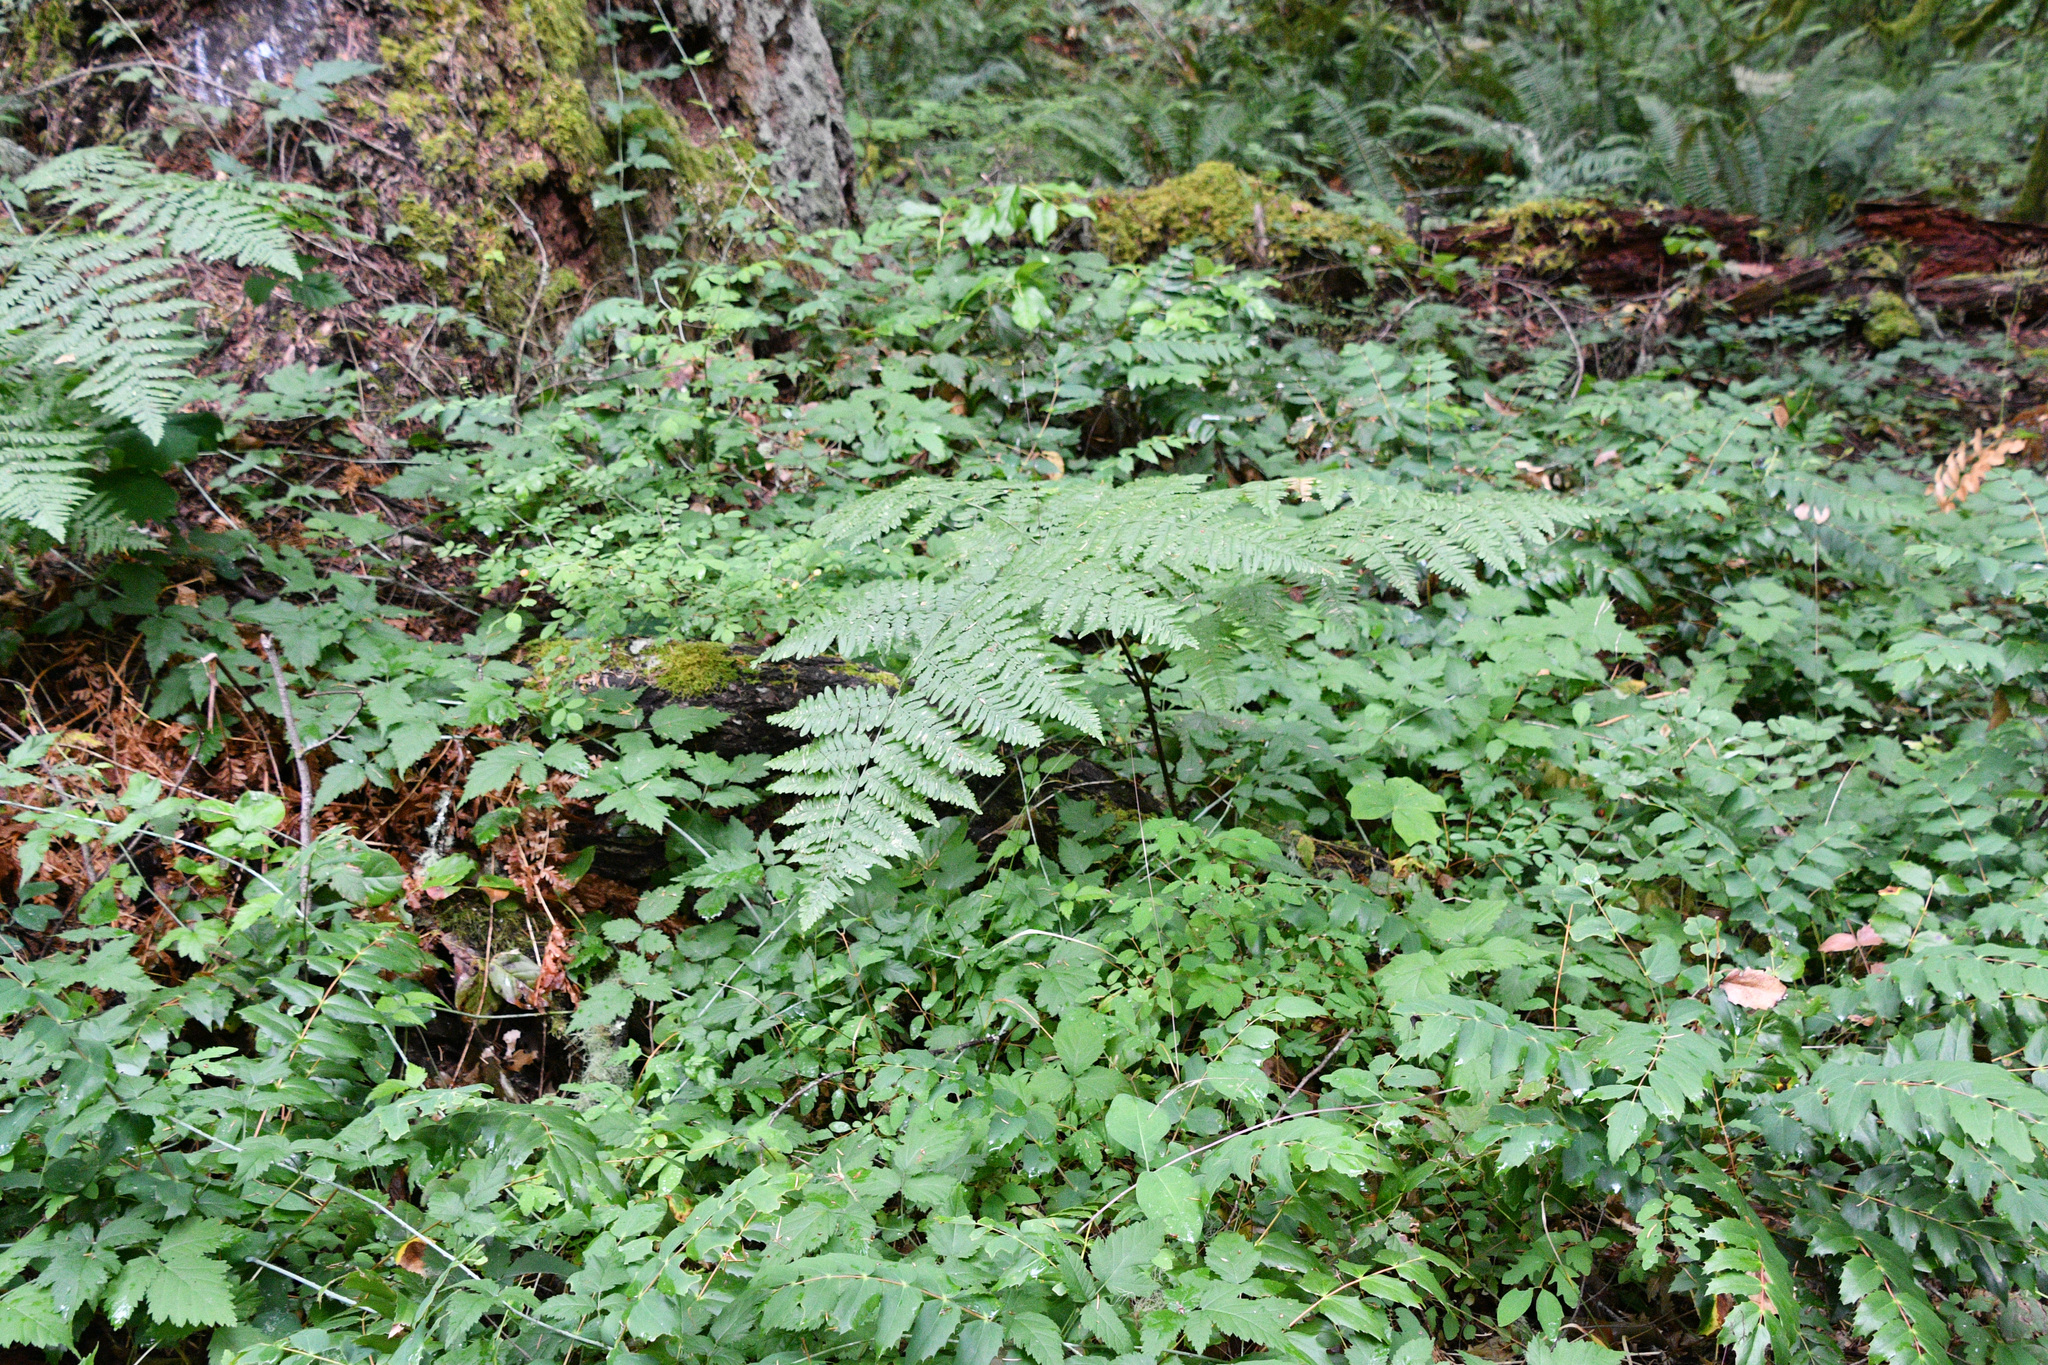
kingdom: Plantae
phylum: Tracheophyta
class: Polypodiopsida
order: Polypodiales
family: Dennstaedtiaceae
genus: Pteridium
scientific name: Pteridium aquilinum
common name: Bracken
